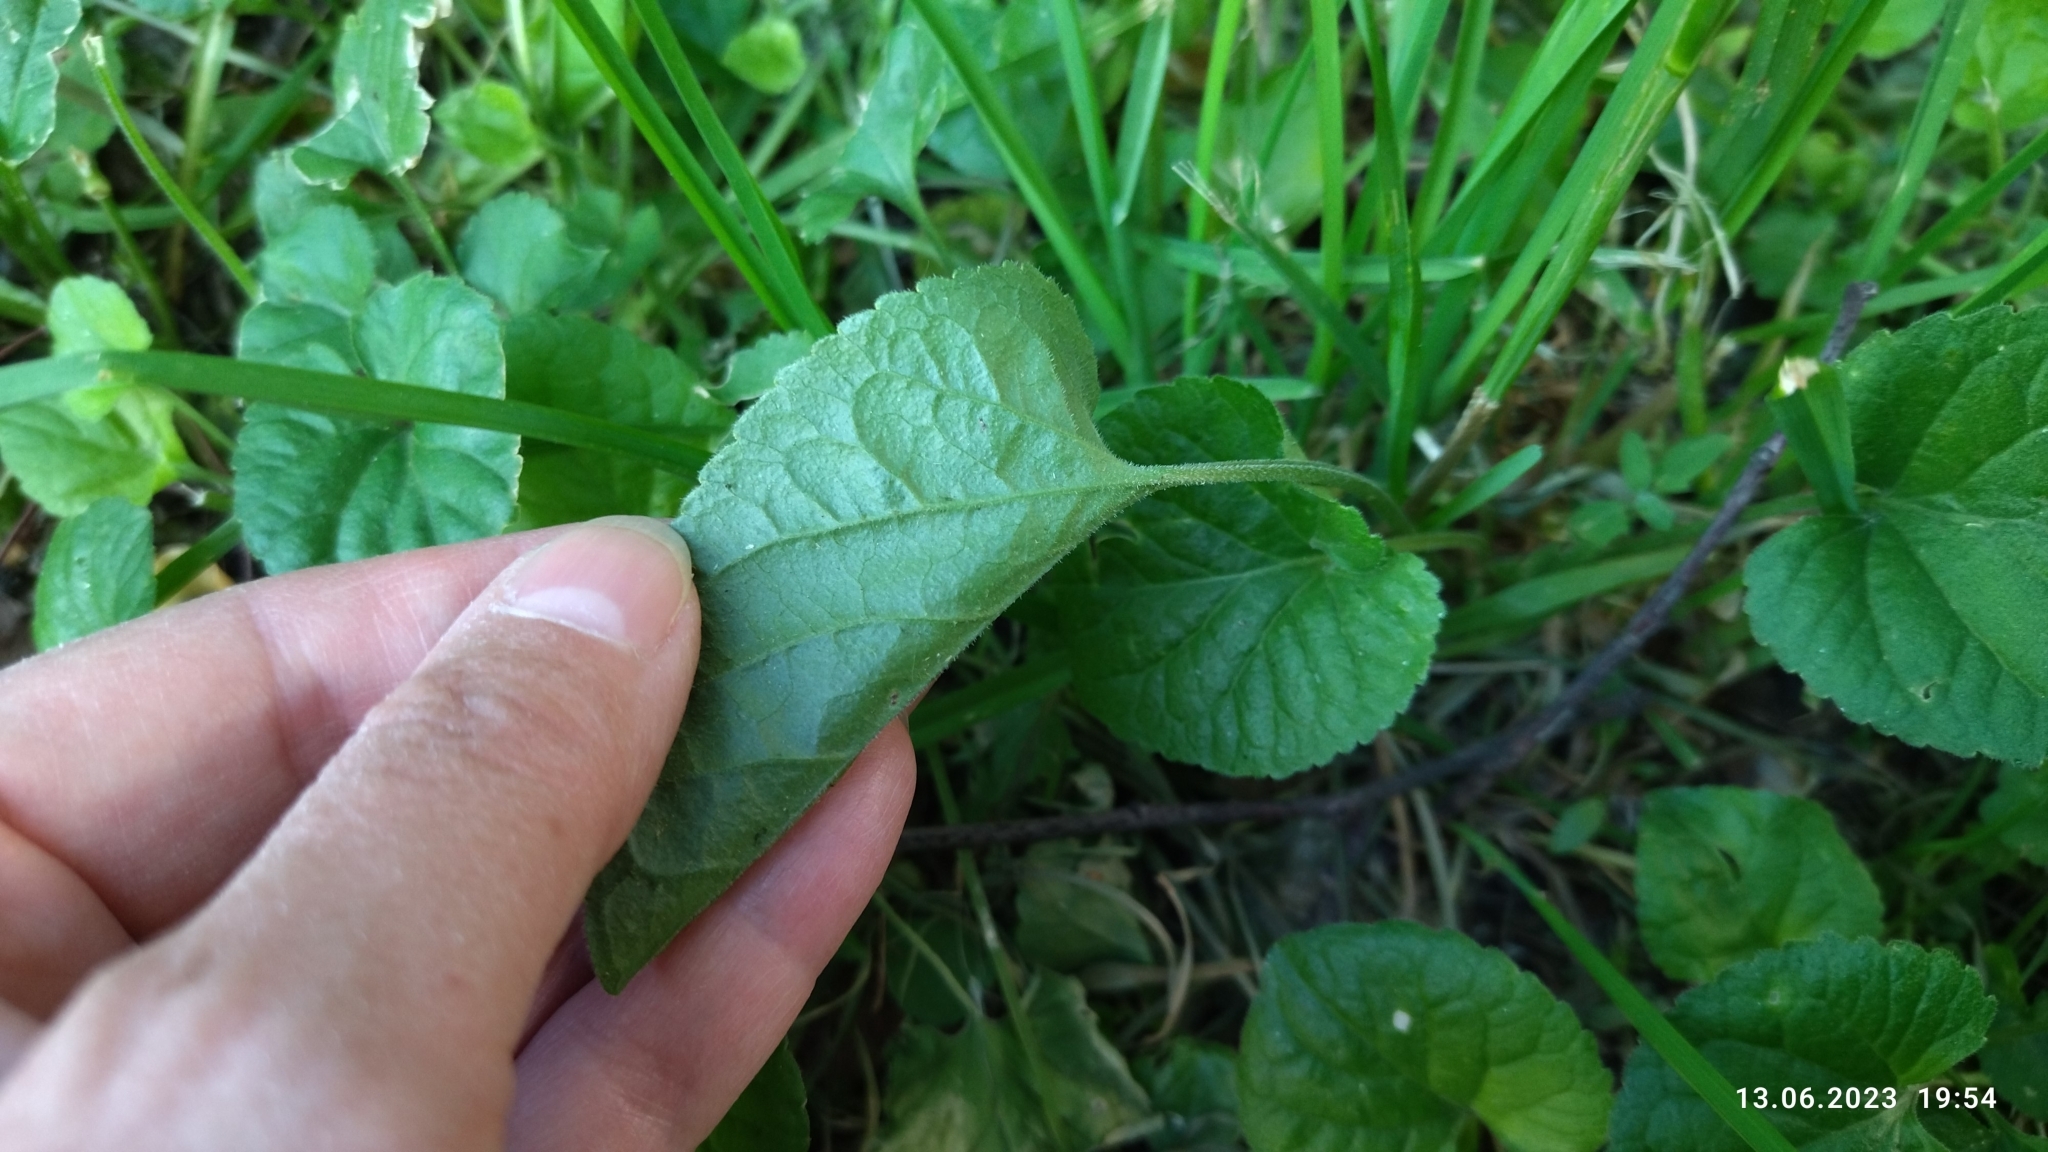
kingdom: Plantae
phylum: Tracheophyta
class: Magnoliopsida
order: Malpighiales
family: Violaceae
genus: Viola
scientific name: Viola odorata
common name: Sweet violet
